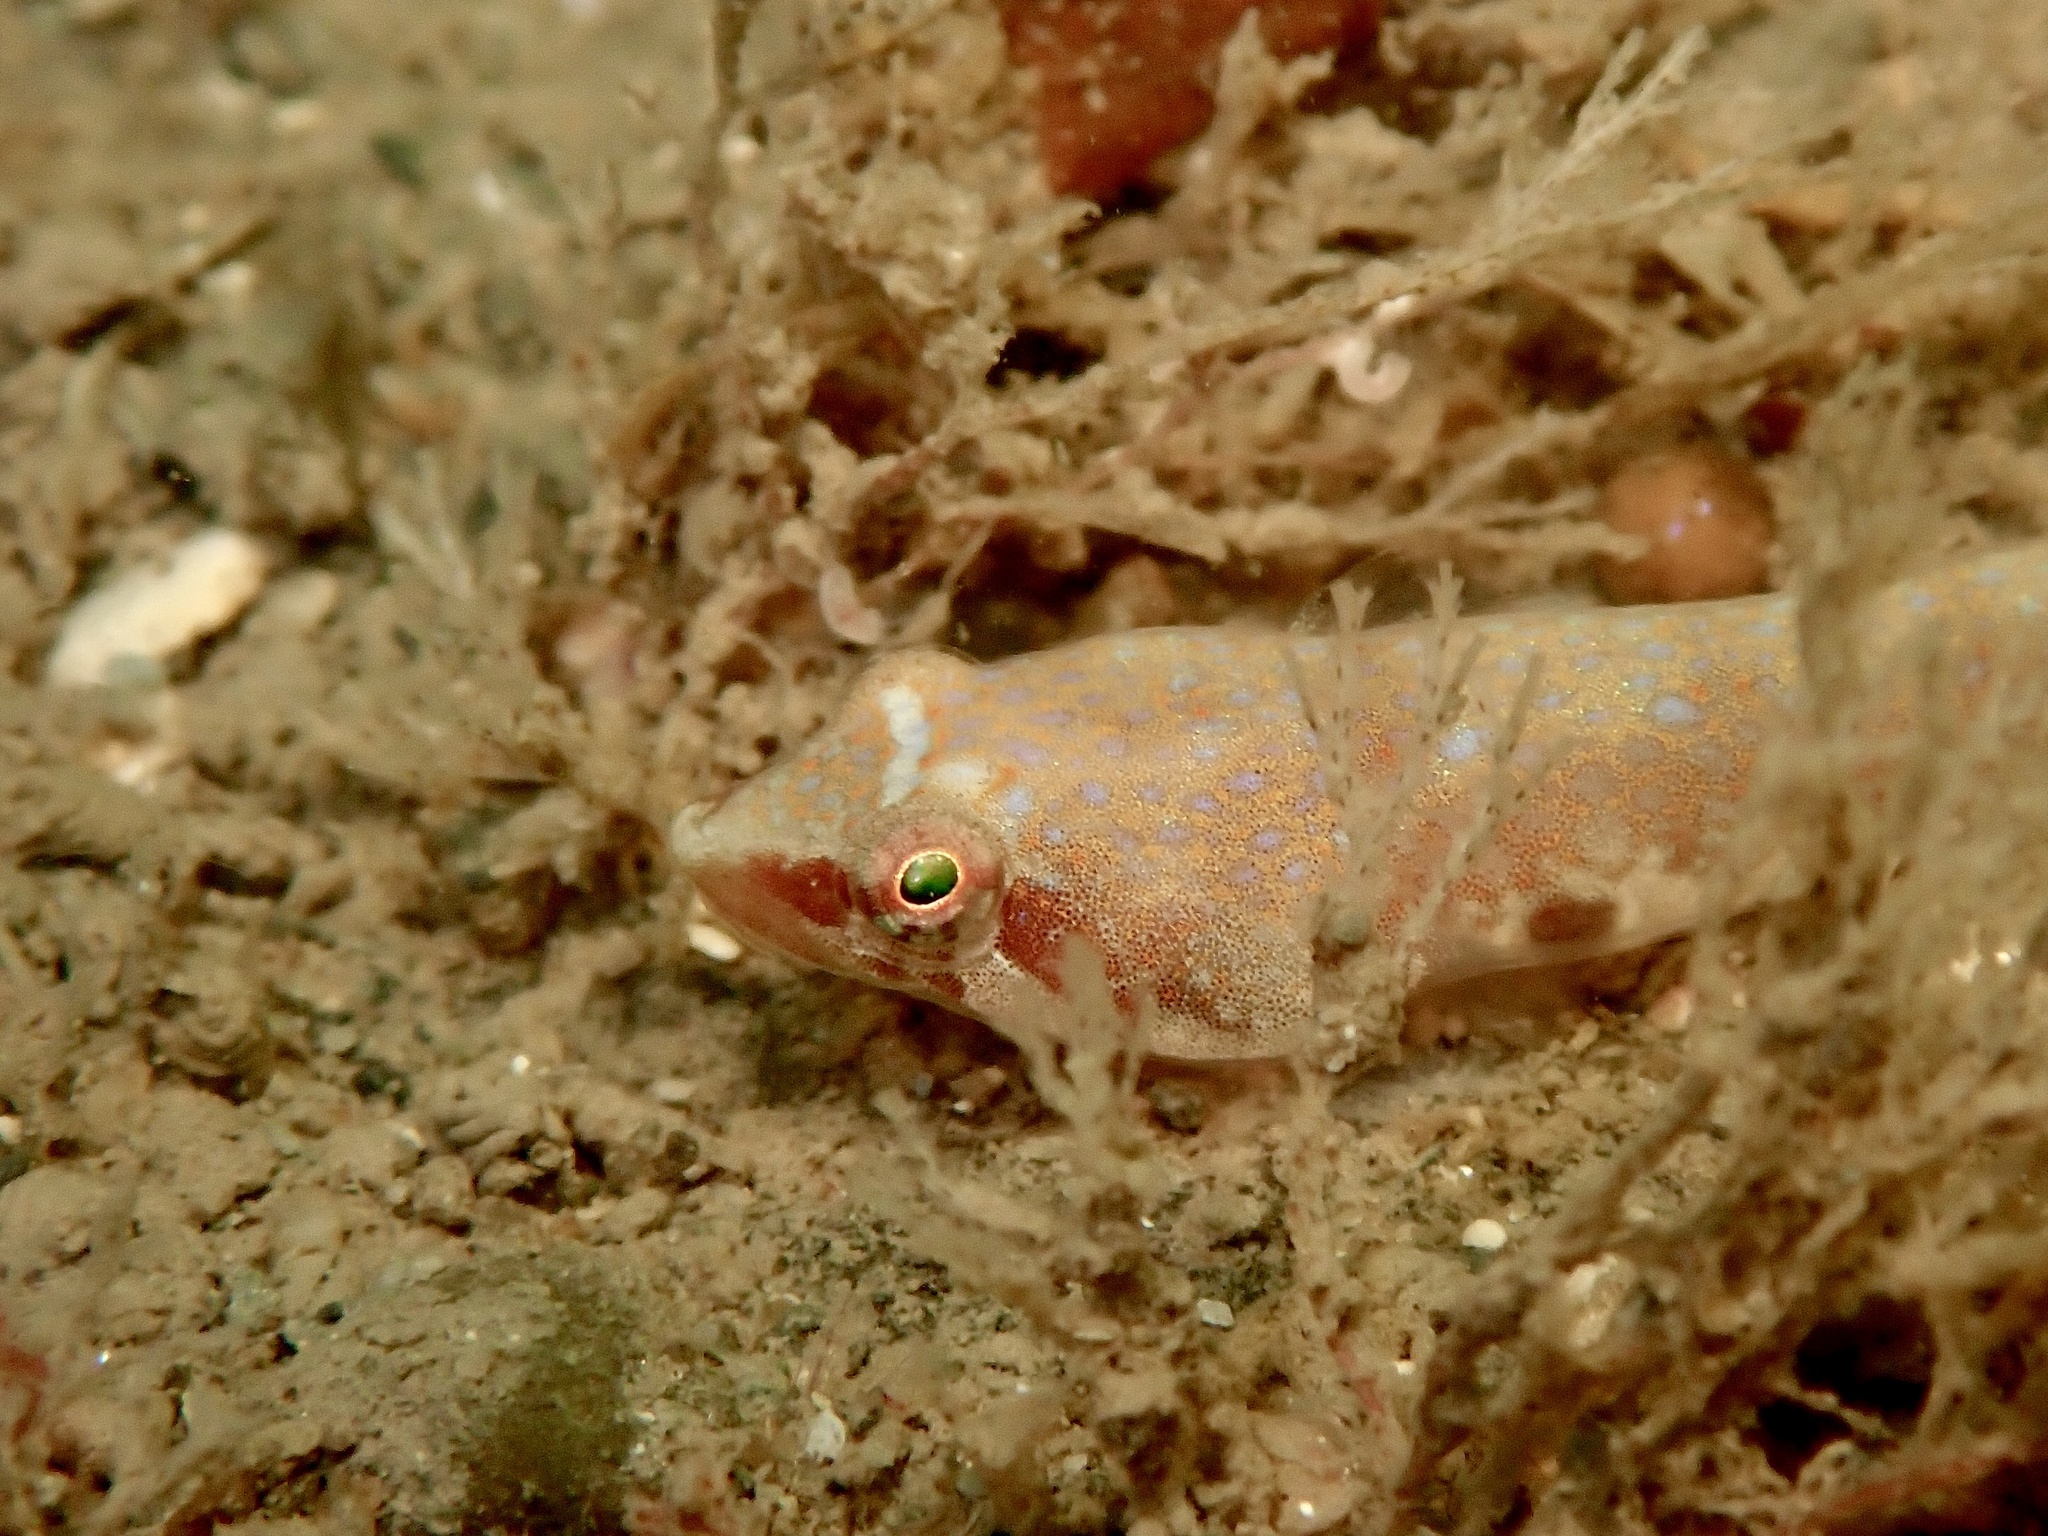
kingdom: Animalia
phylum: Chordata
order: Gobiesociformes
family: Gobiesocidae
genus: Diplecogaster
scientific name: Diplecogaster bimaculata
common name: Two-spotted clingfish
